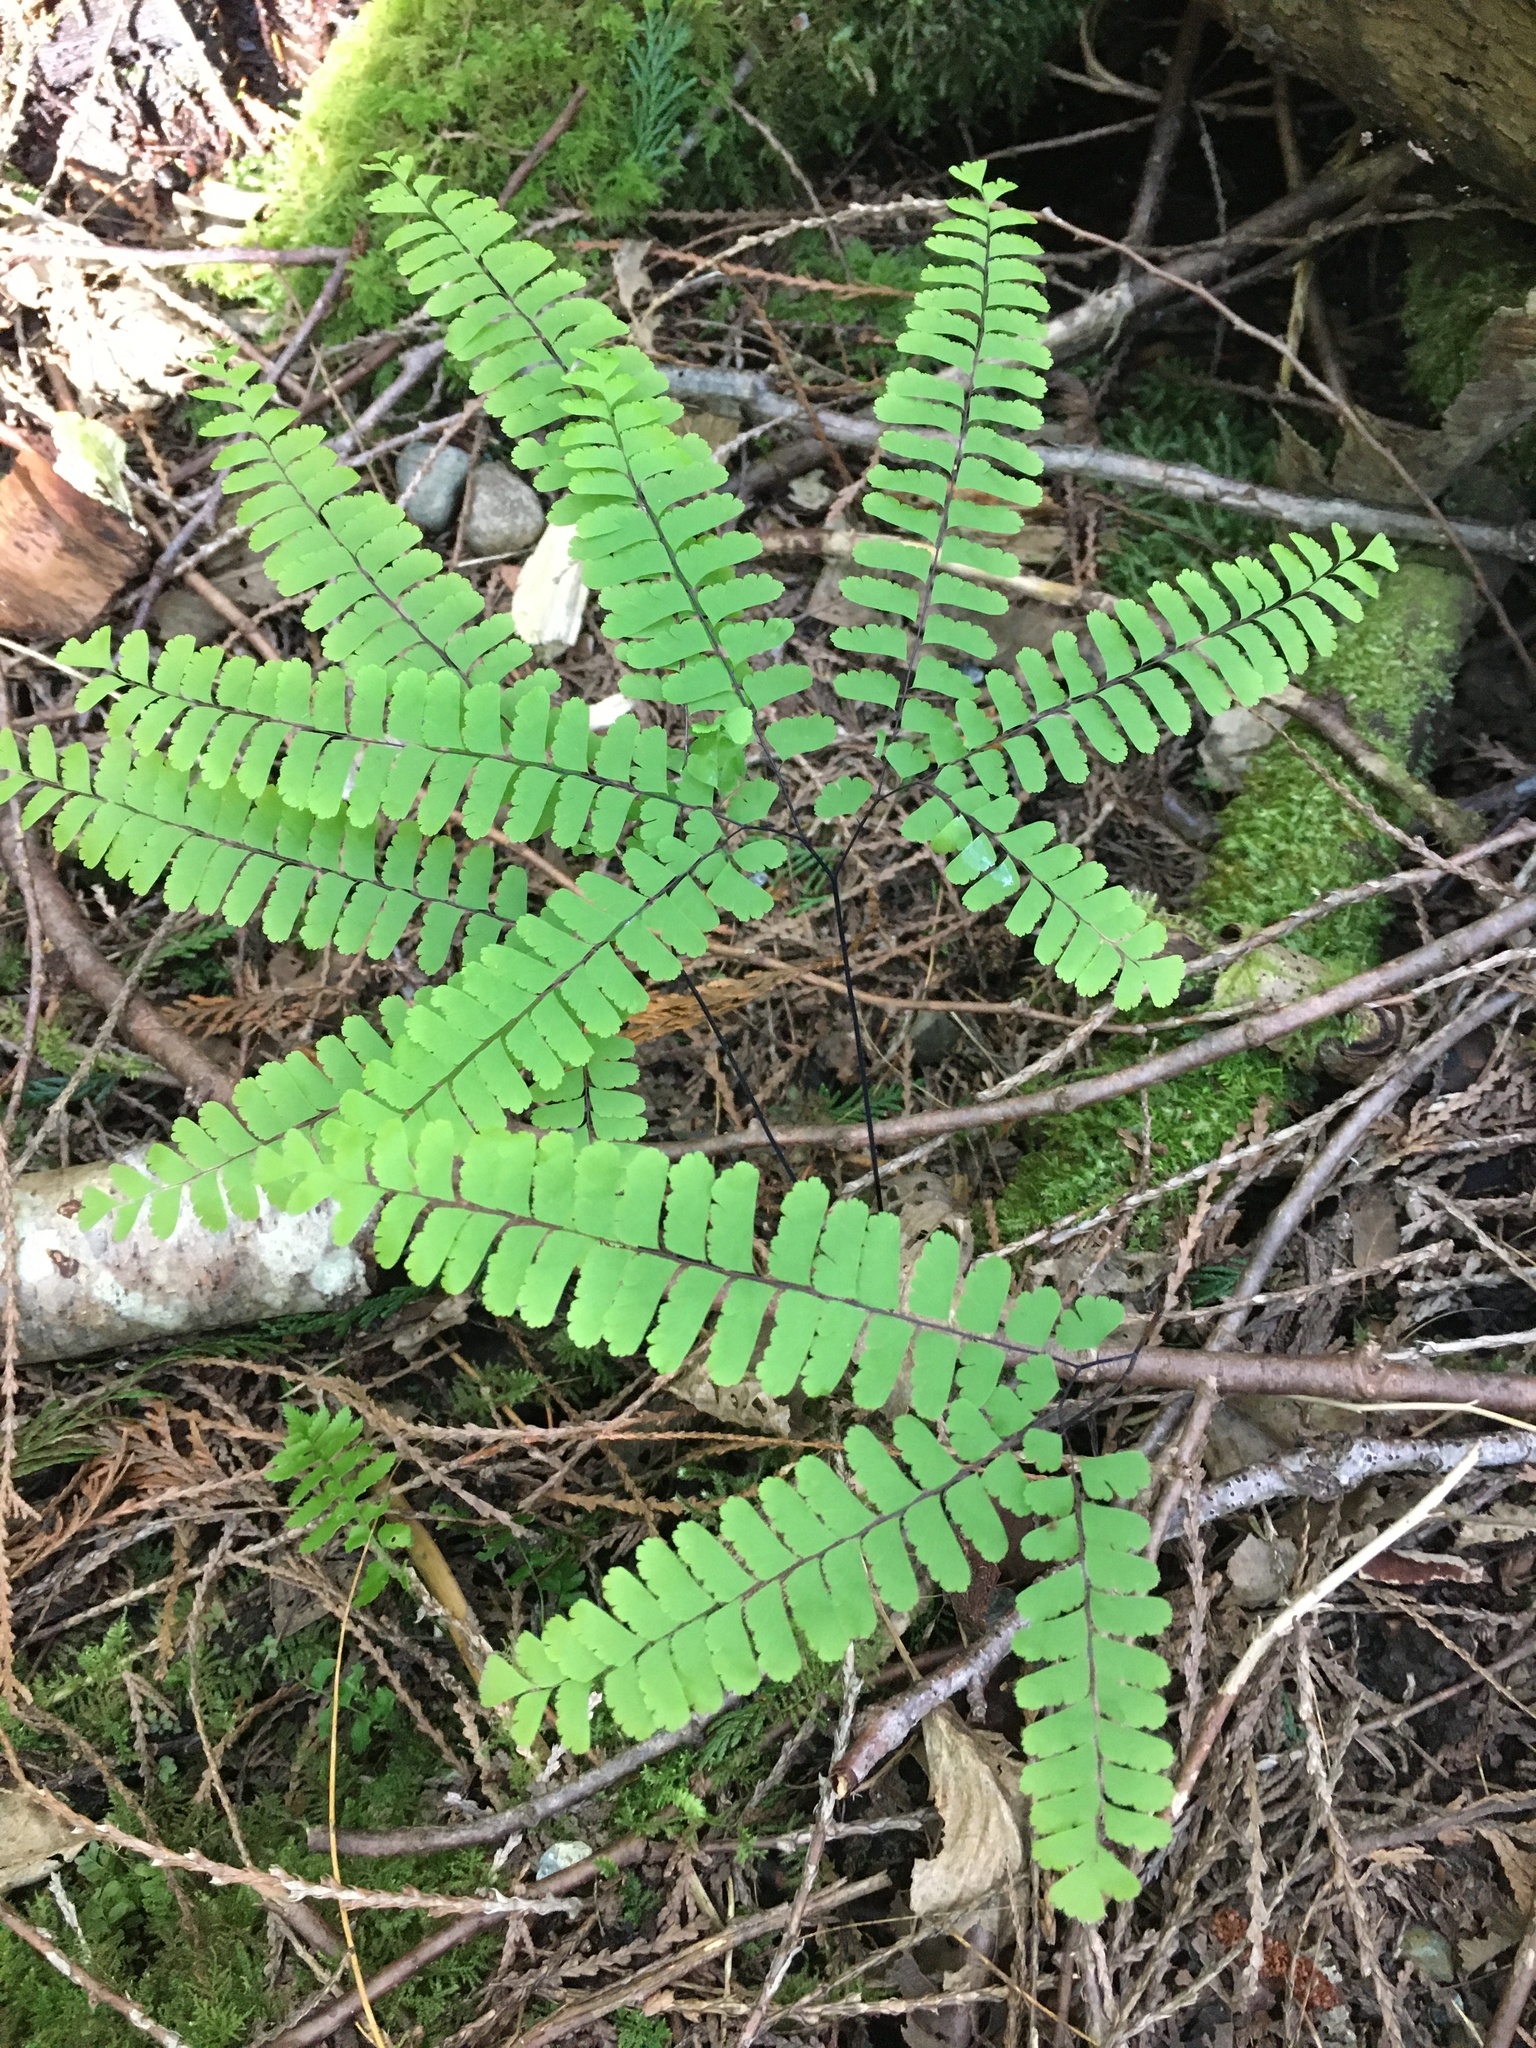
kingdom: Plantae
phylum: Tracheophyta
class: Polypodiopsida
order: Polypodiales
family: Pteridaceae
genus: Adiantum
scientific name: Adiantum aleuticum
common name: Aleutian maidenhair fern
